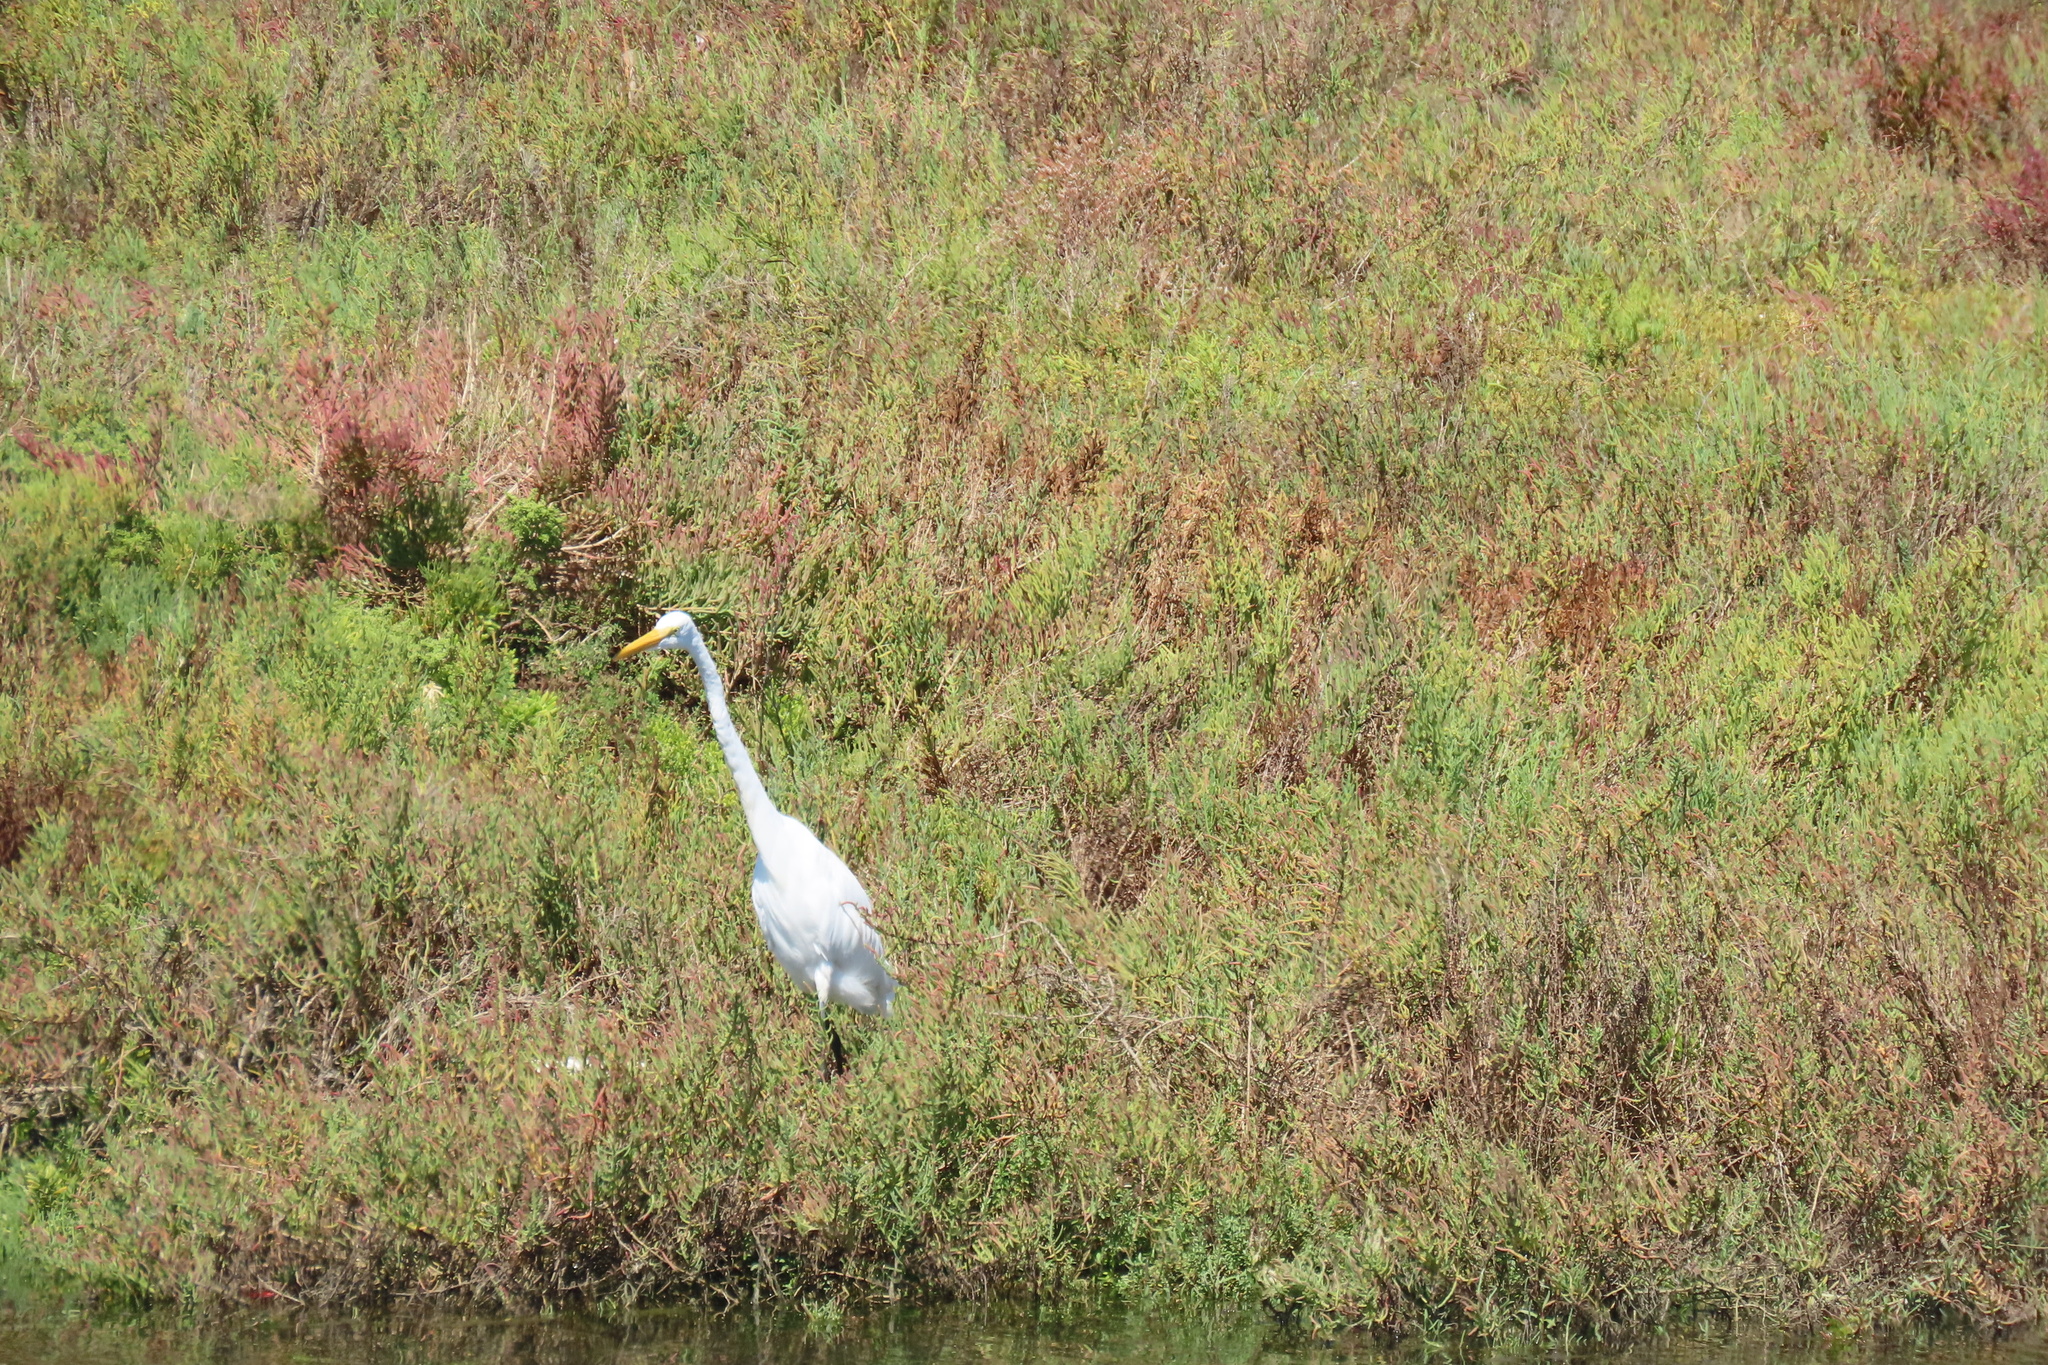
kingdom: Animalia
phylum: Chordata
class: Aves
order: Pelecaniformes
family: Ardeidae
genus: Ardea
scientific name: Ardea alba
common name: Great egret
